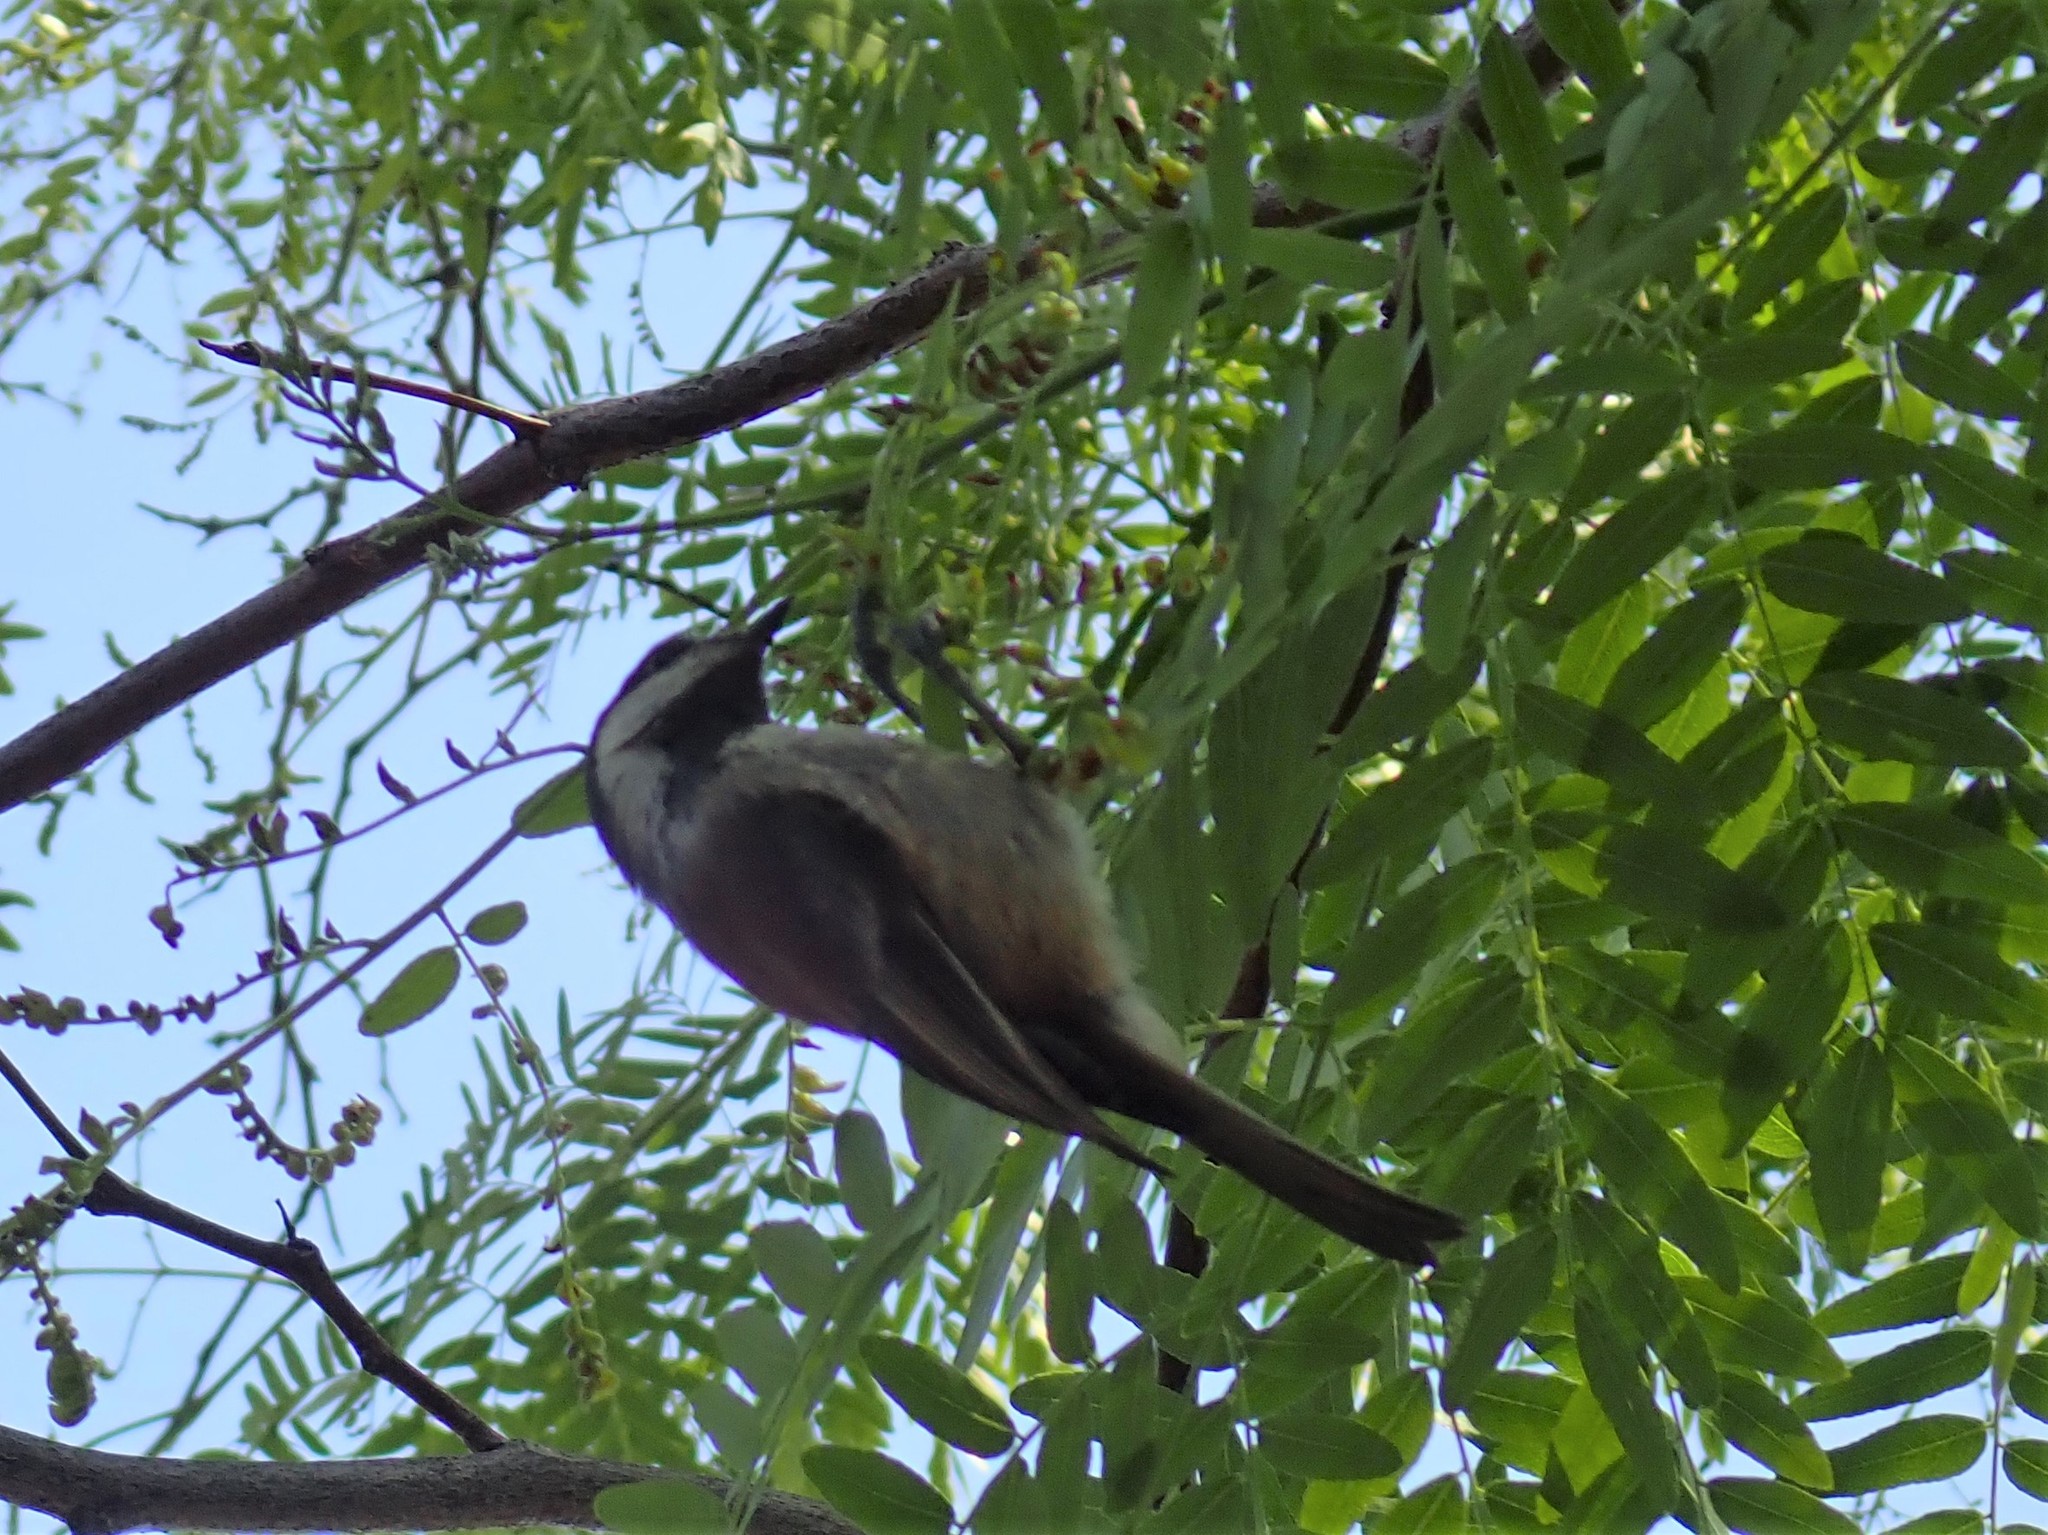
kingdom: Animalia
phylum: Chordata
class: Aves
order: Passeriformes
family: Paridae
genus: Poecile
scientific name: Poecile rufescens
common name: Chestnut-backed chickadee
